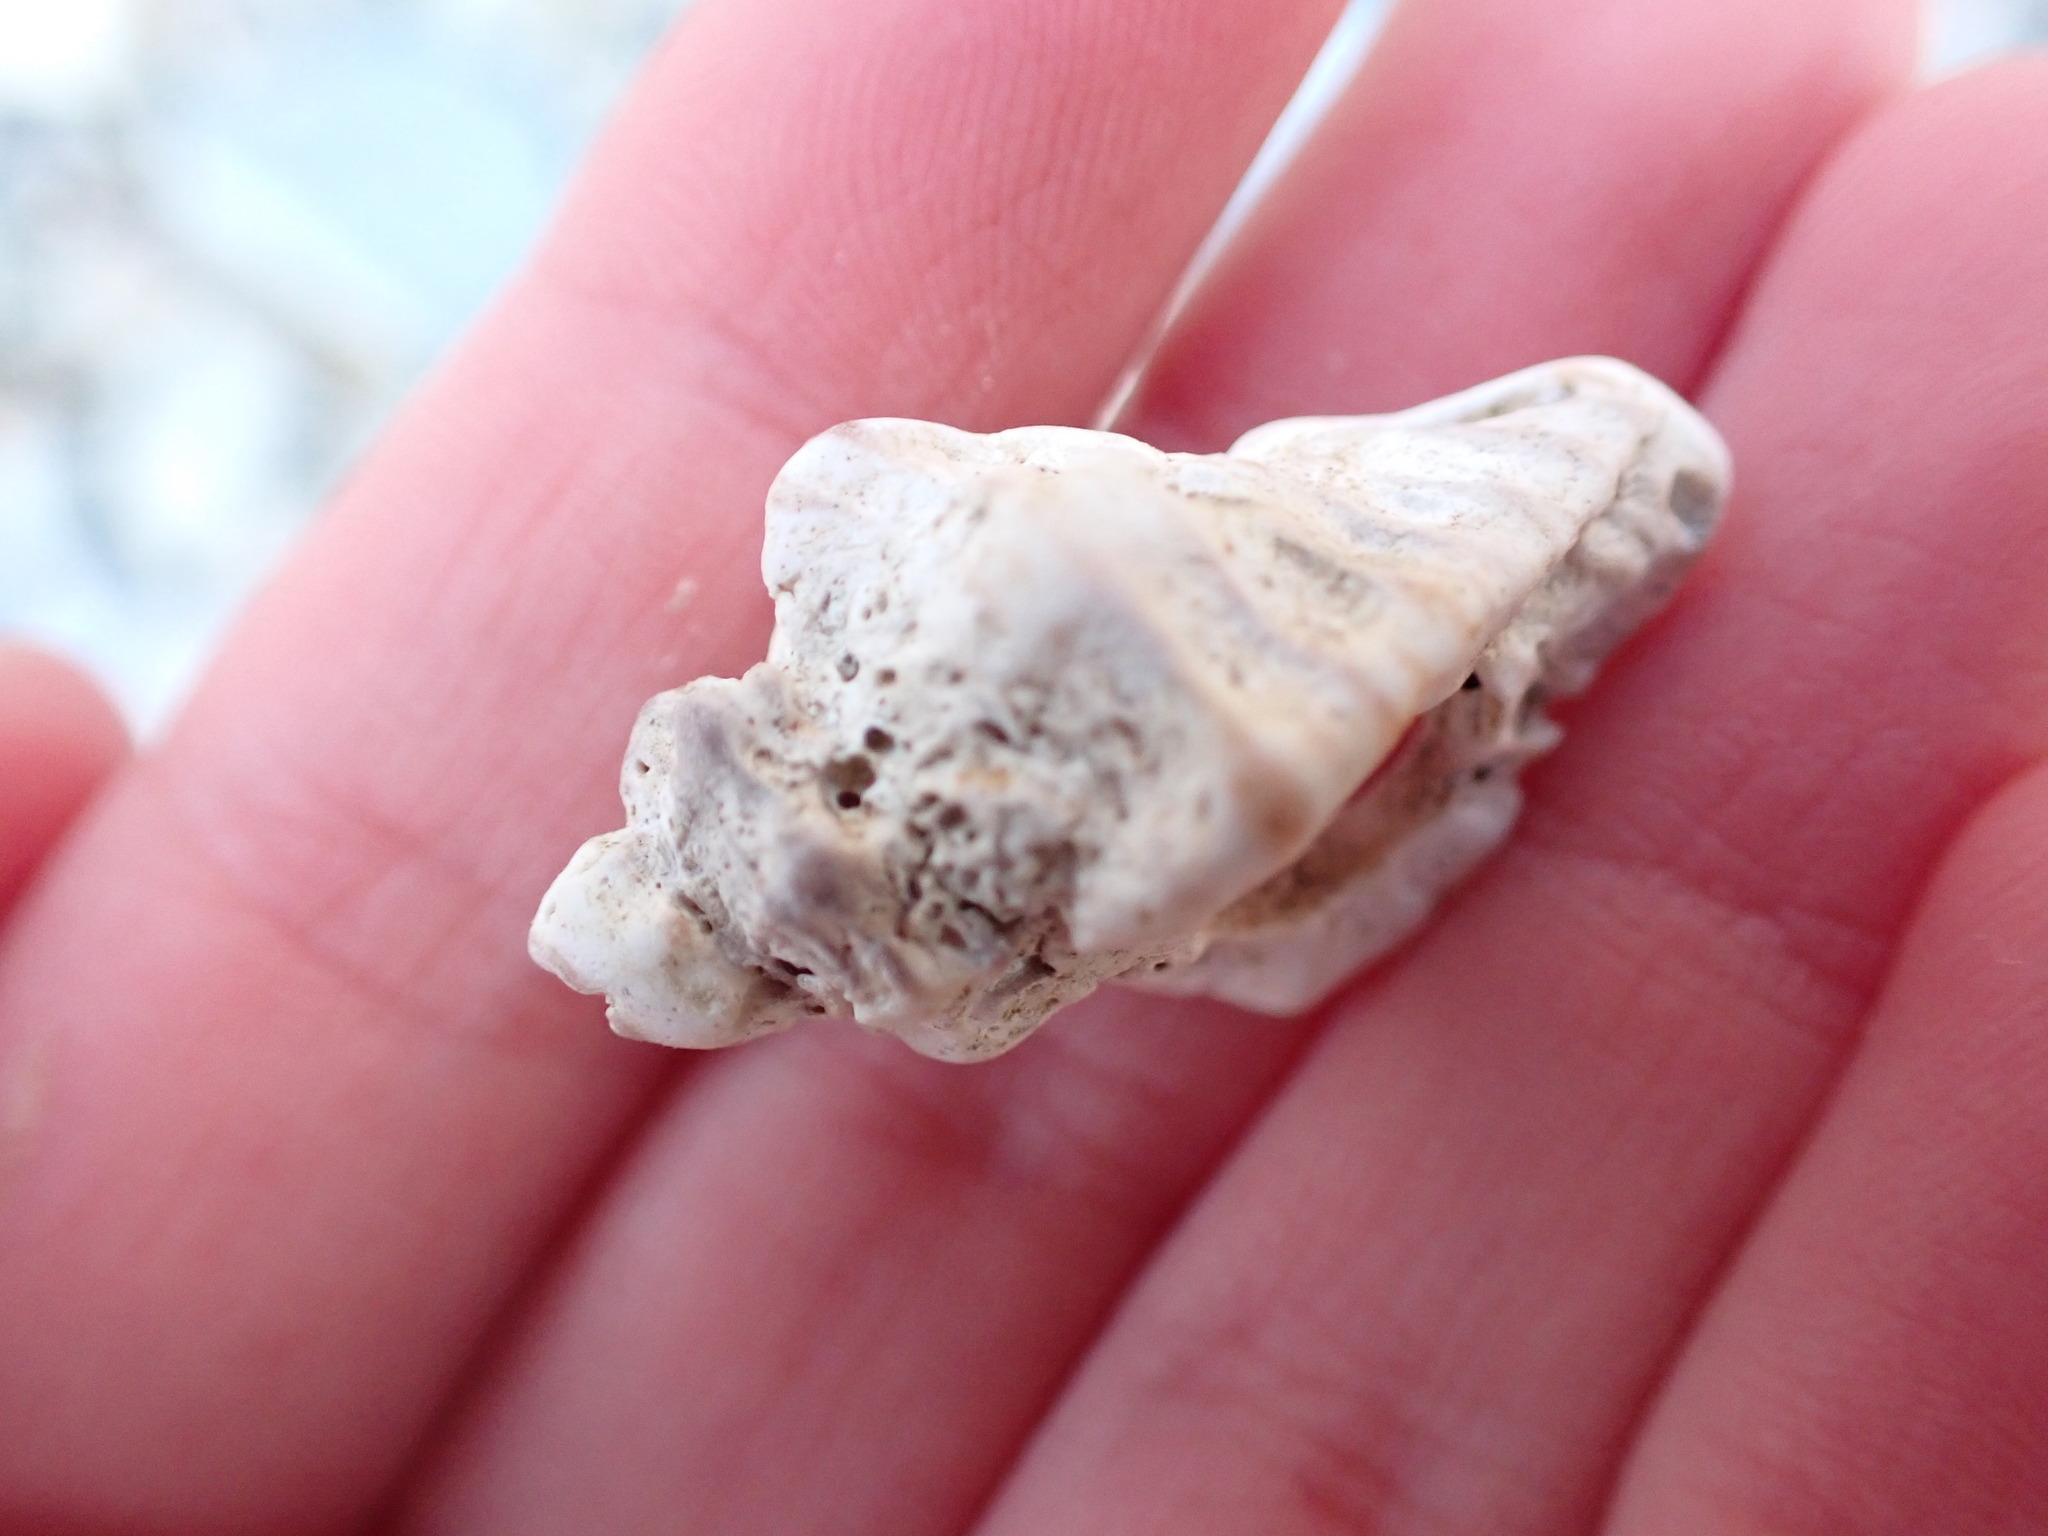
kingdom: Animalia
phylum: Mollusca
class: Gastropoda
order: Neogastropoda
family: Muricidae
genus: Ocenebra
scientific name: Ocenebra erinaceus
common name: European sting winkle
